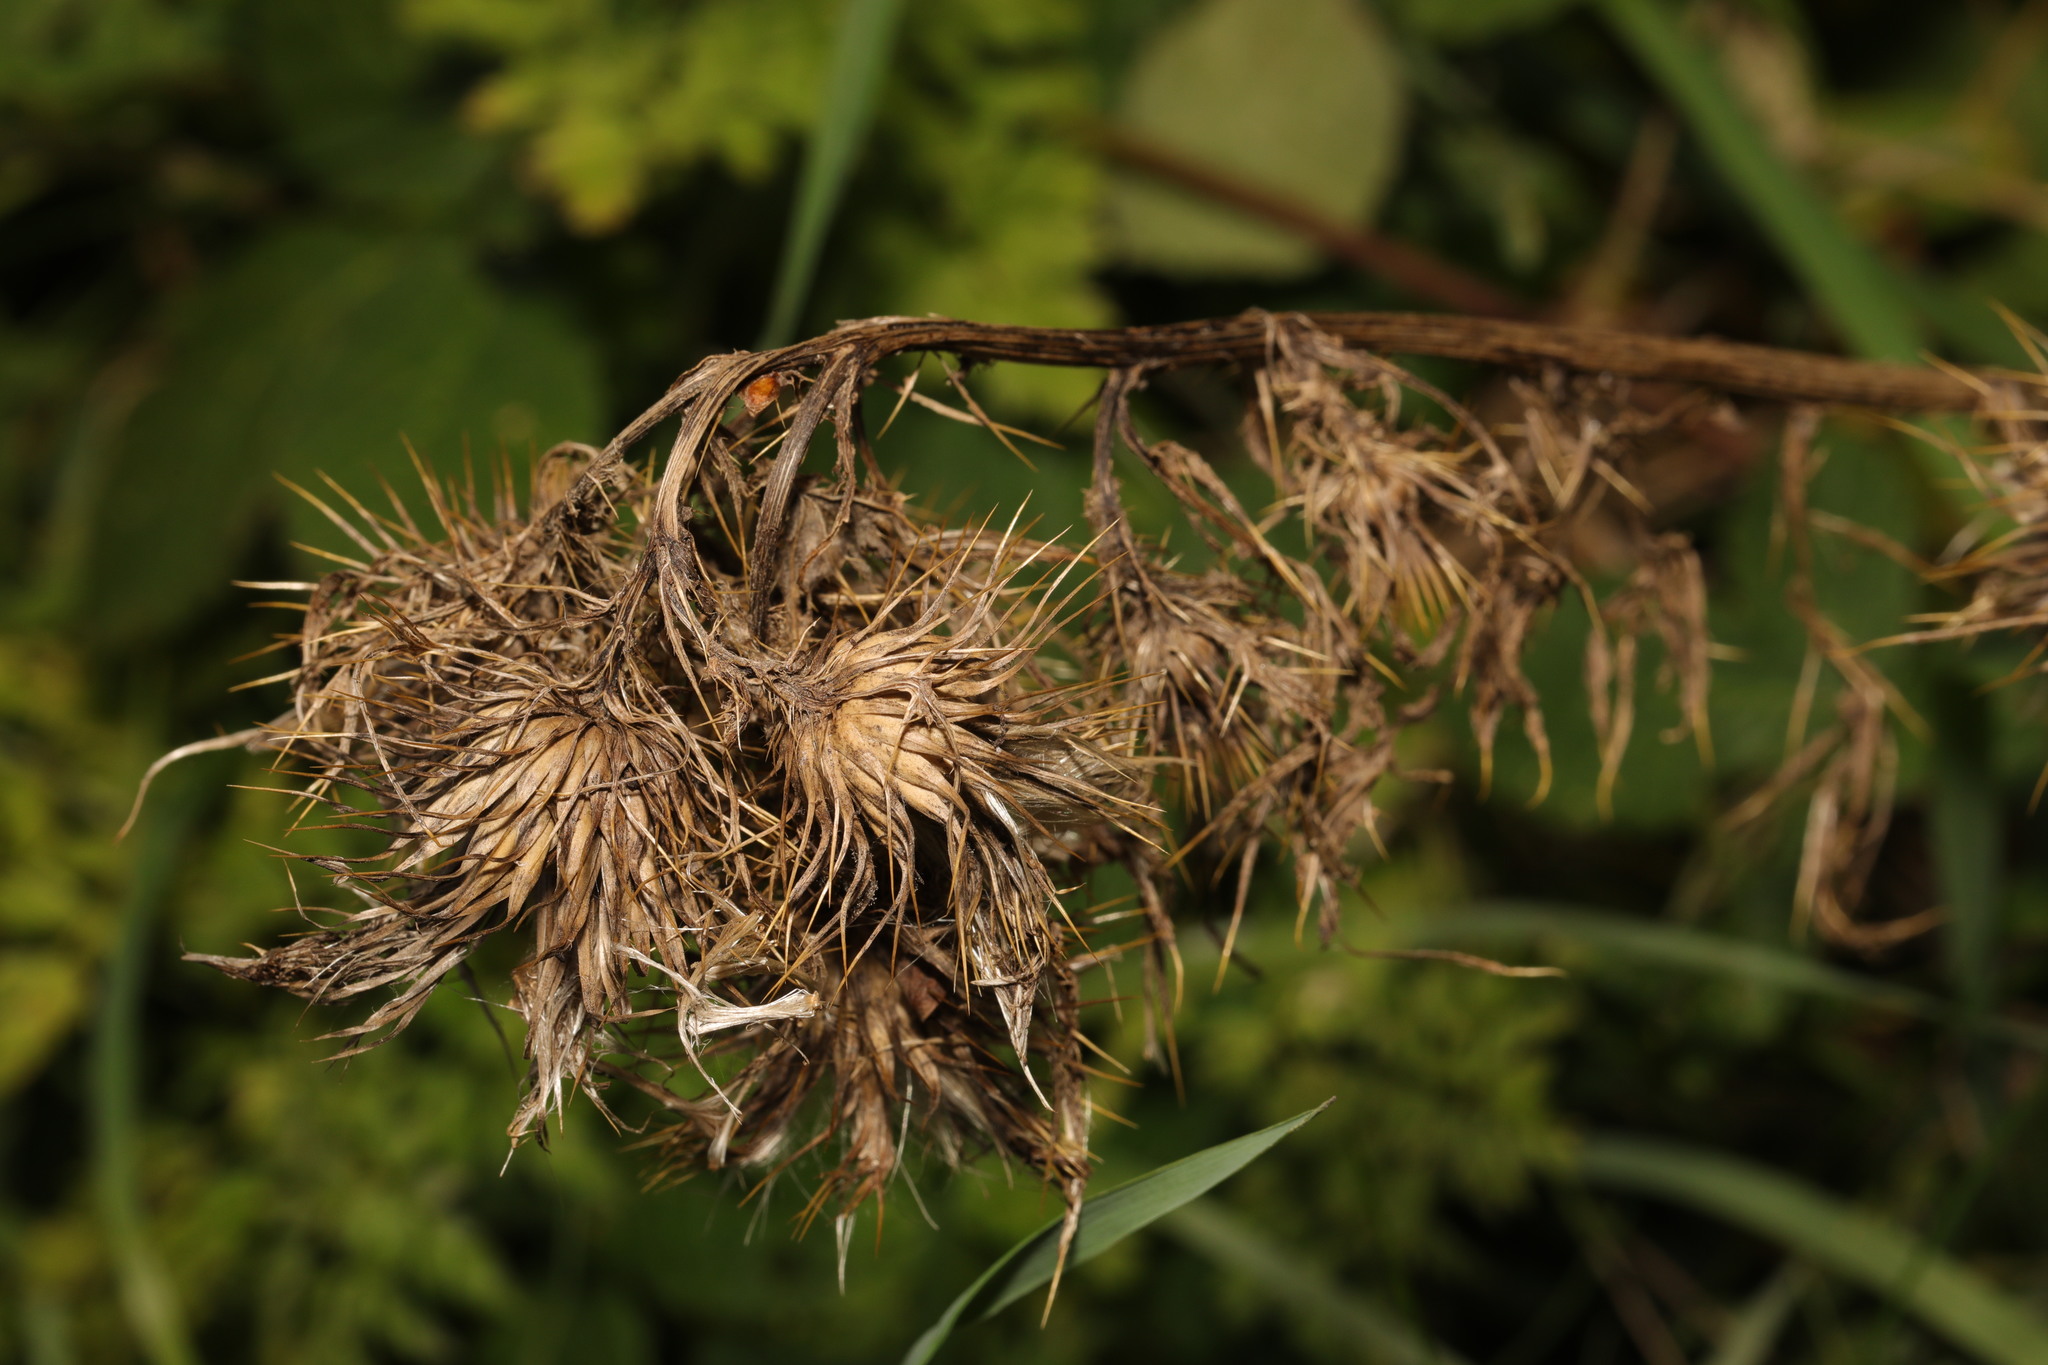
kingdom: Plantae
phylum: Tracheophyta
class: Magnoliopsida
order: Asterales
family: Asteraceae
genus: Cirsium
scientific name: Cirsium vulgare
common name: Bull thistle
